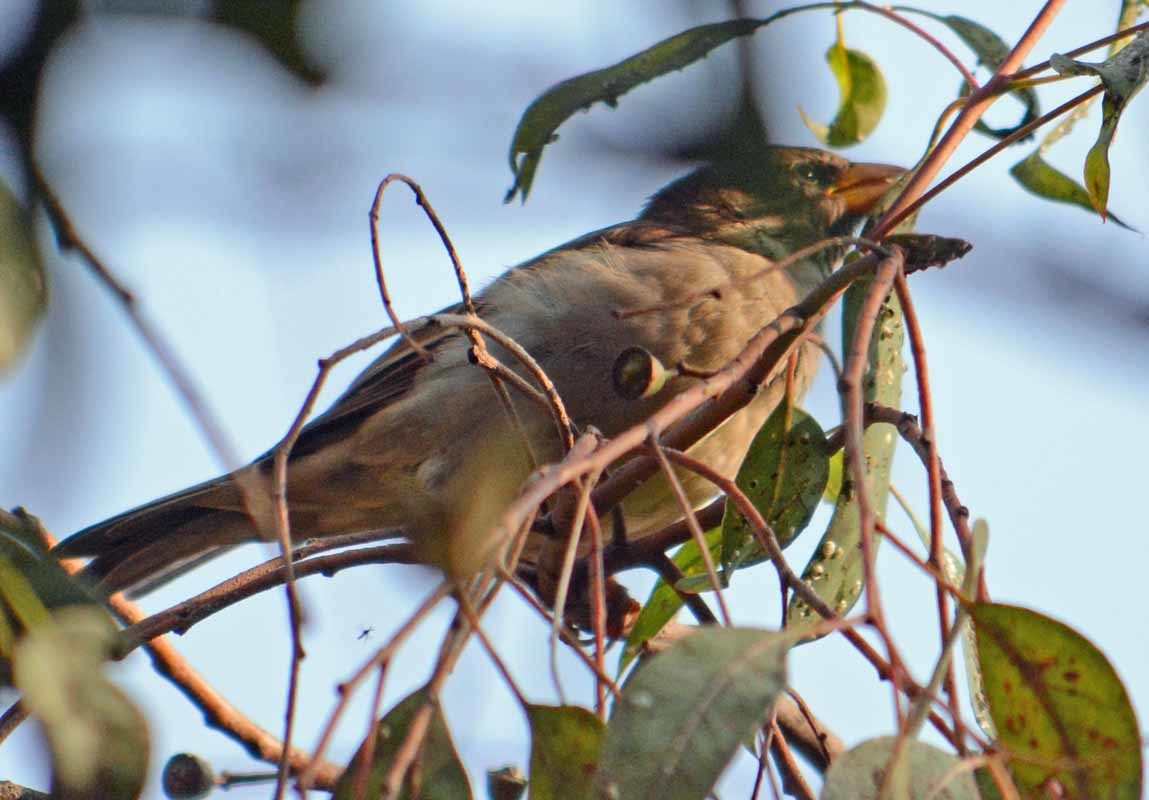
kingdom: Animalia
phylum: Chordata
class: Aves
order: Passeriformes
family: Passeridae
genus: Passer
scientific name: Passer domesticus
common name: House sparrow
